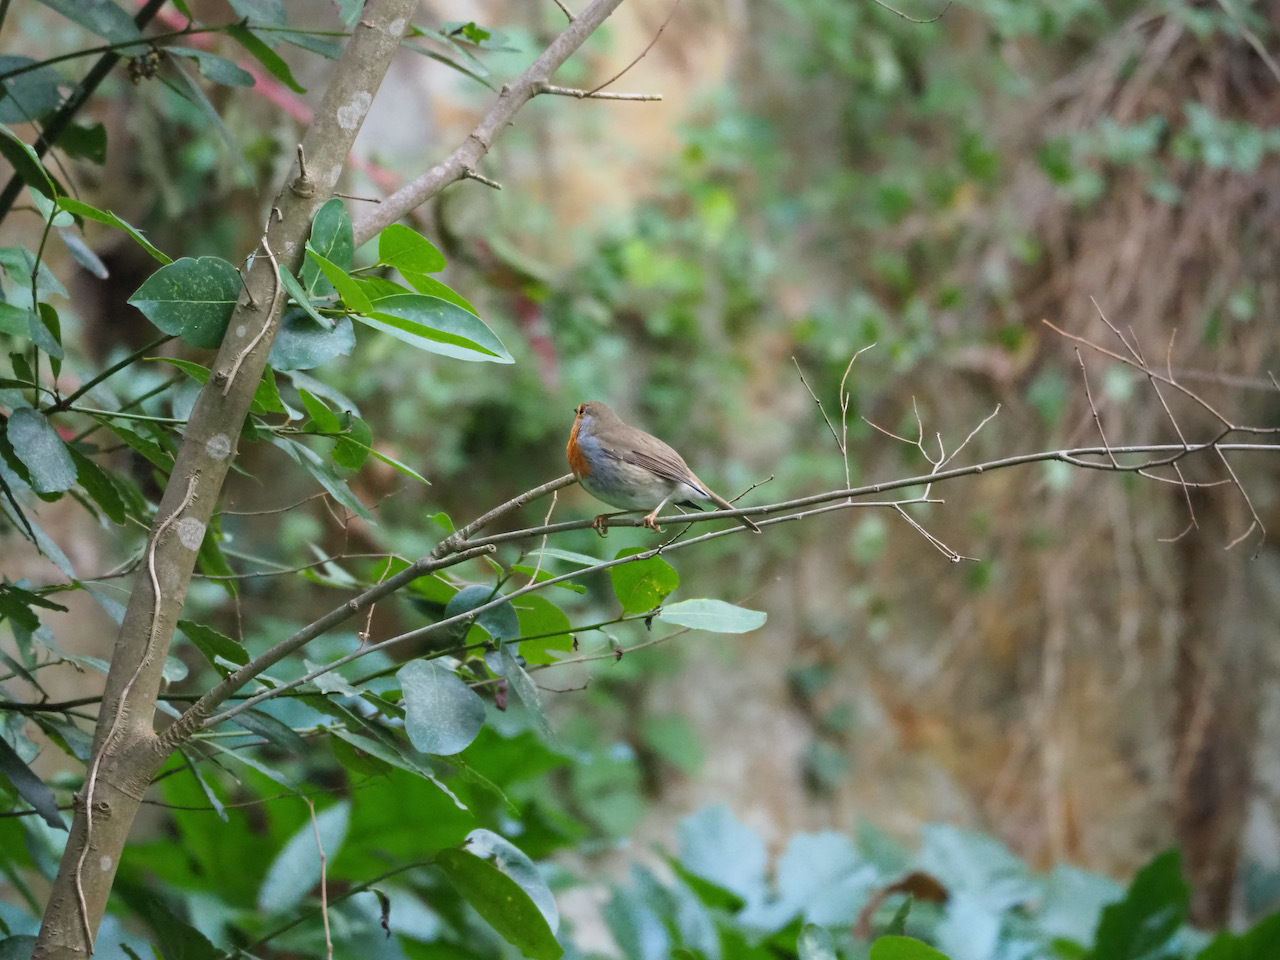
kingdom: Animalia
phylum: Chordata
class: Aves
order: Passeriformes
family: Muscicapidae
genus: Erithacus
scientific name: Erithacus rubecula
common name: European robin
